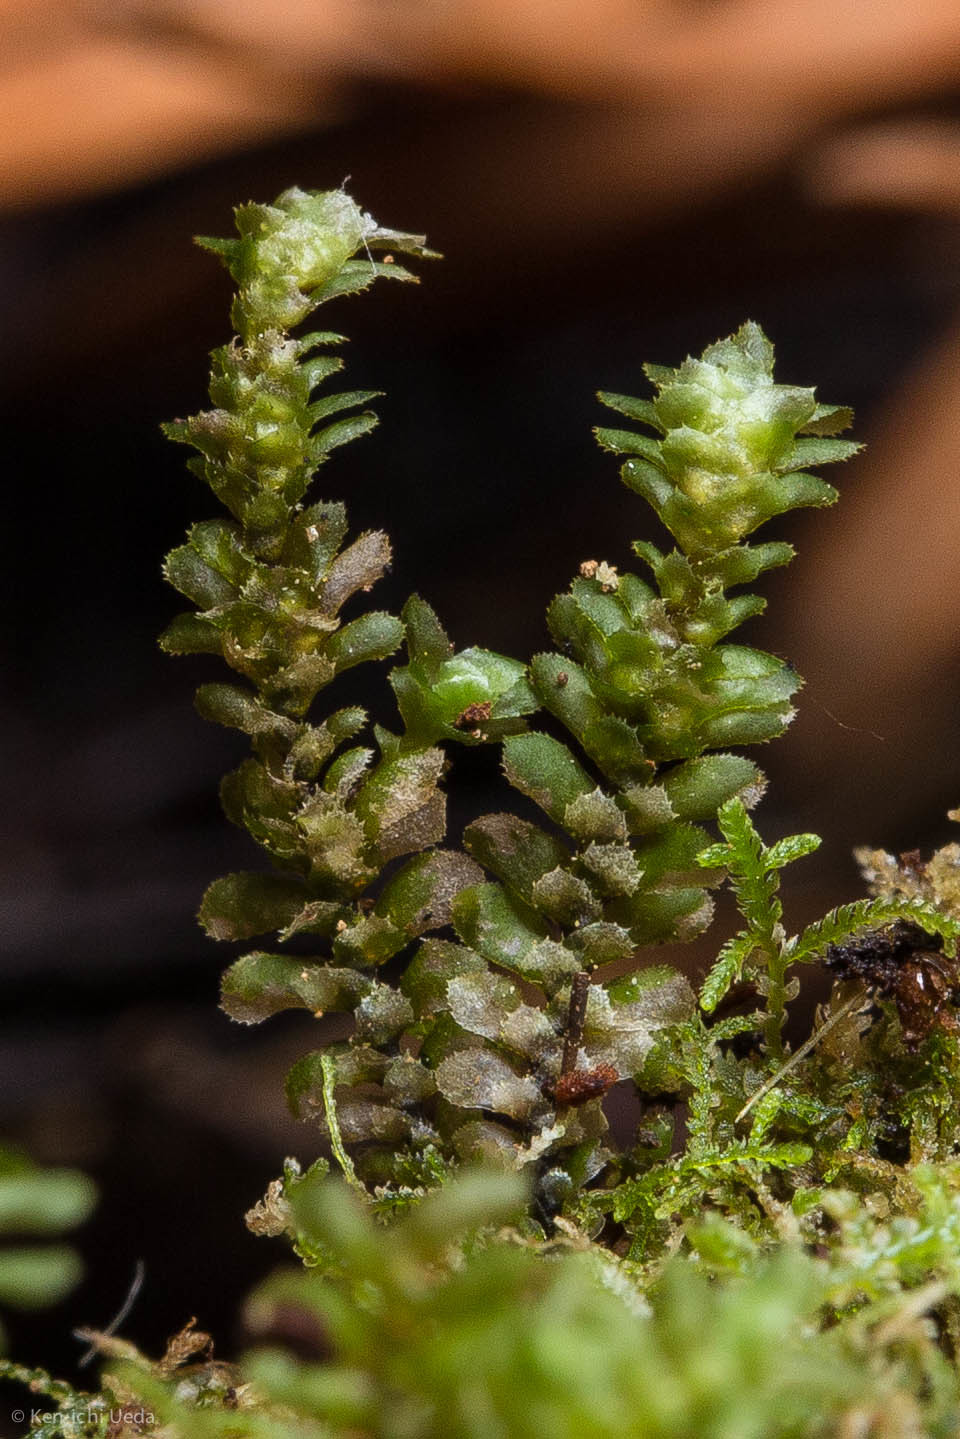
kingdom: Plantae
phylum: Marchantiophyta
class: Jungermanniopsida
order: Jungermanniales
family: Scapaniaceae
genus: Scapania
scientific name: Scapania bolanderi
